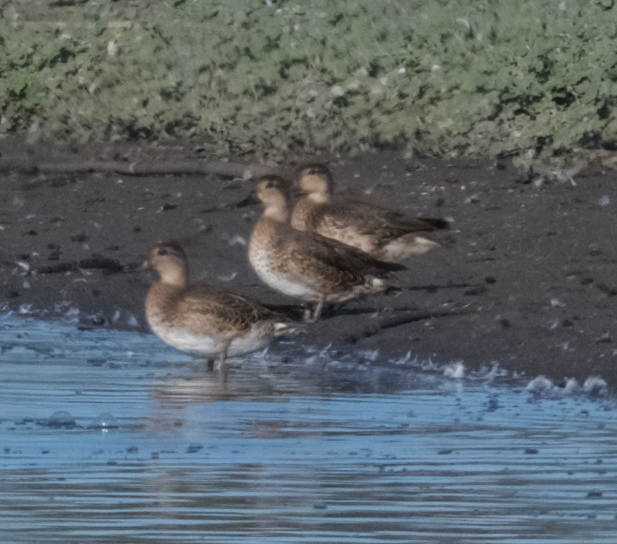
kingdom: Animalia
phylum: Chordata
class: Aves
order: Anseriformes
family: Anatidae
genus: Anas
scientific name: Anas crecca
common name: Eurasian teal
